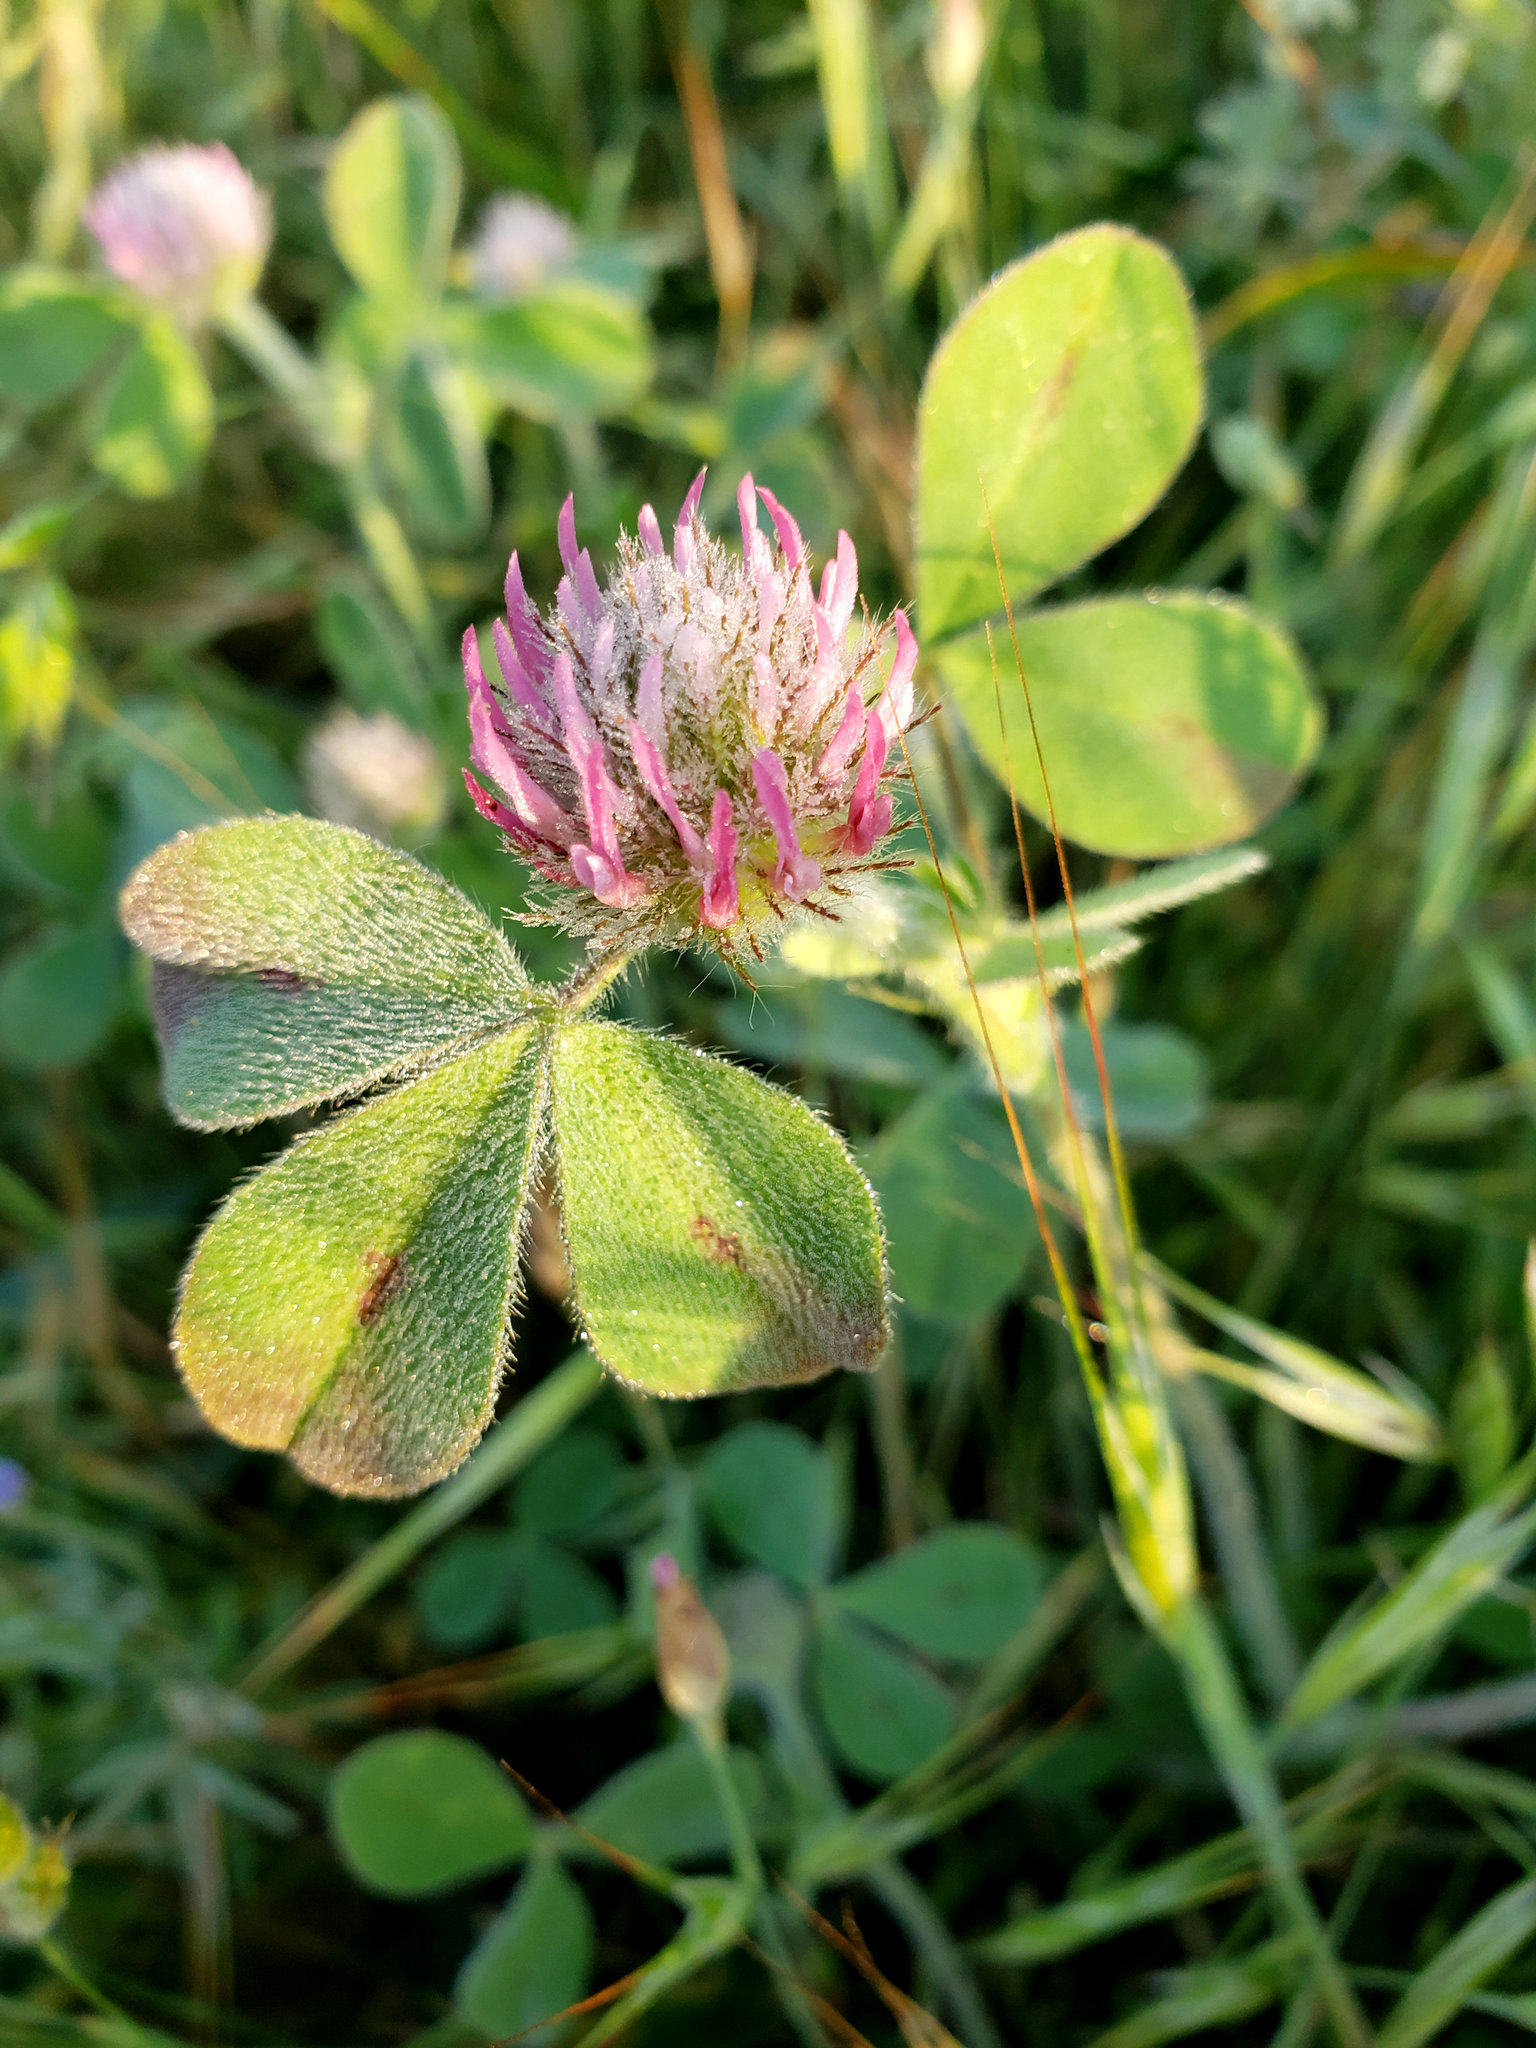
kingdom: Plantae
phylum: Tracheophyta
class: Magnoliopsida
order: Fabales
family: Fabaceae
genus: Trifolium
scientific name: Trifolium hirtum
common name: Rose clover
